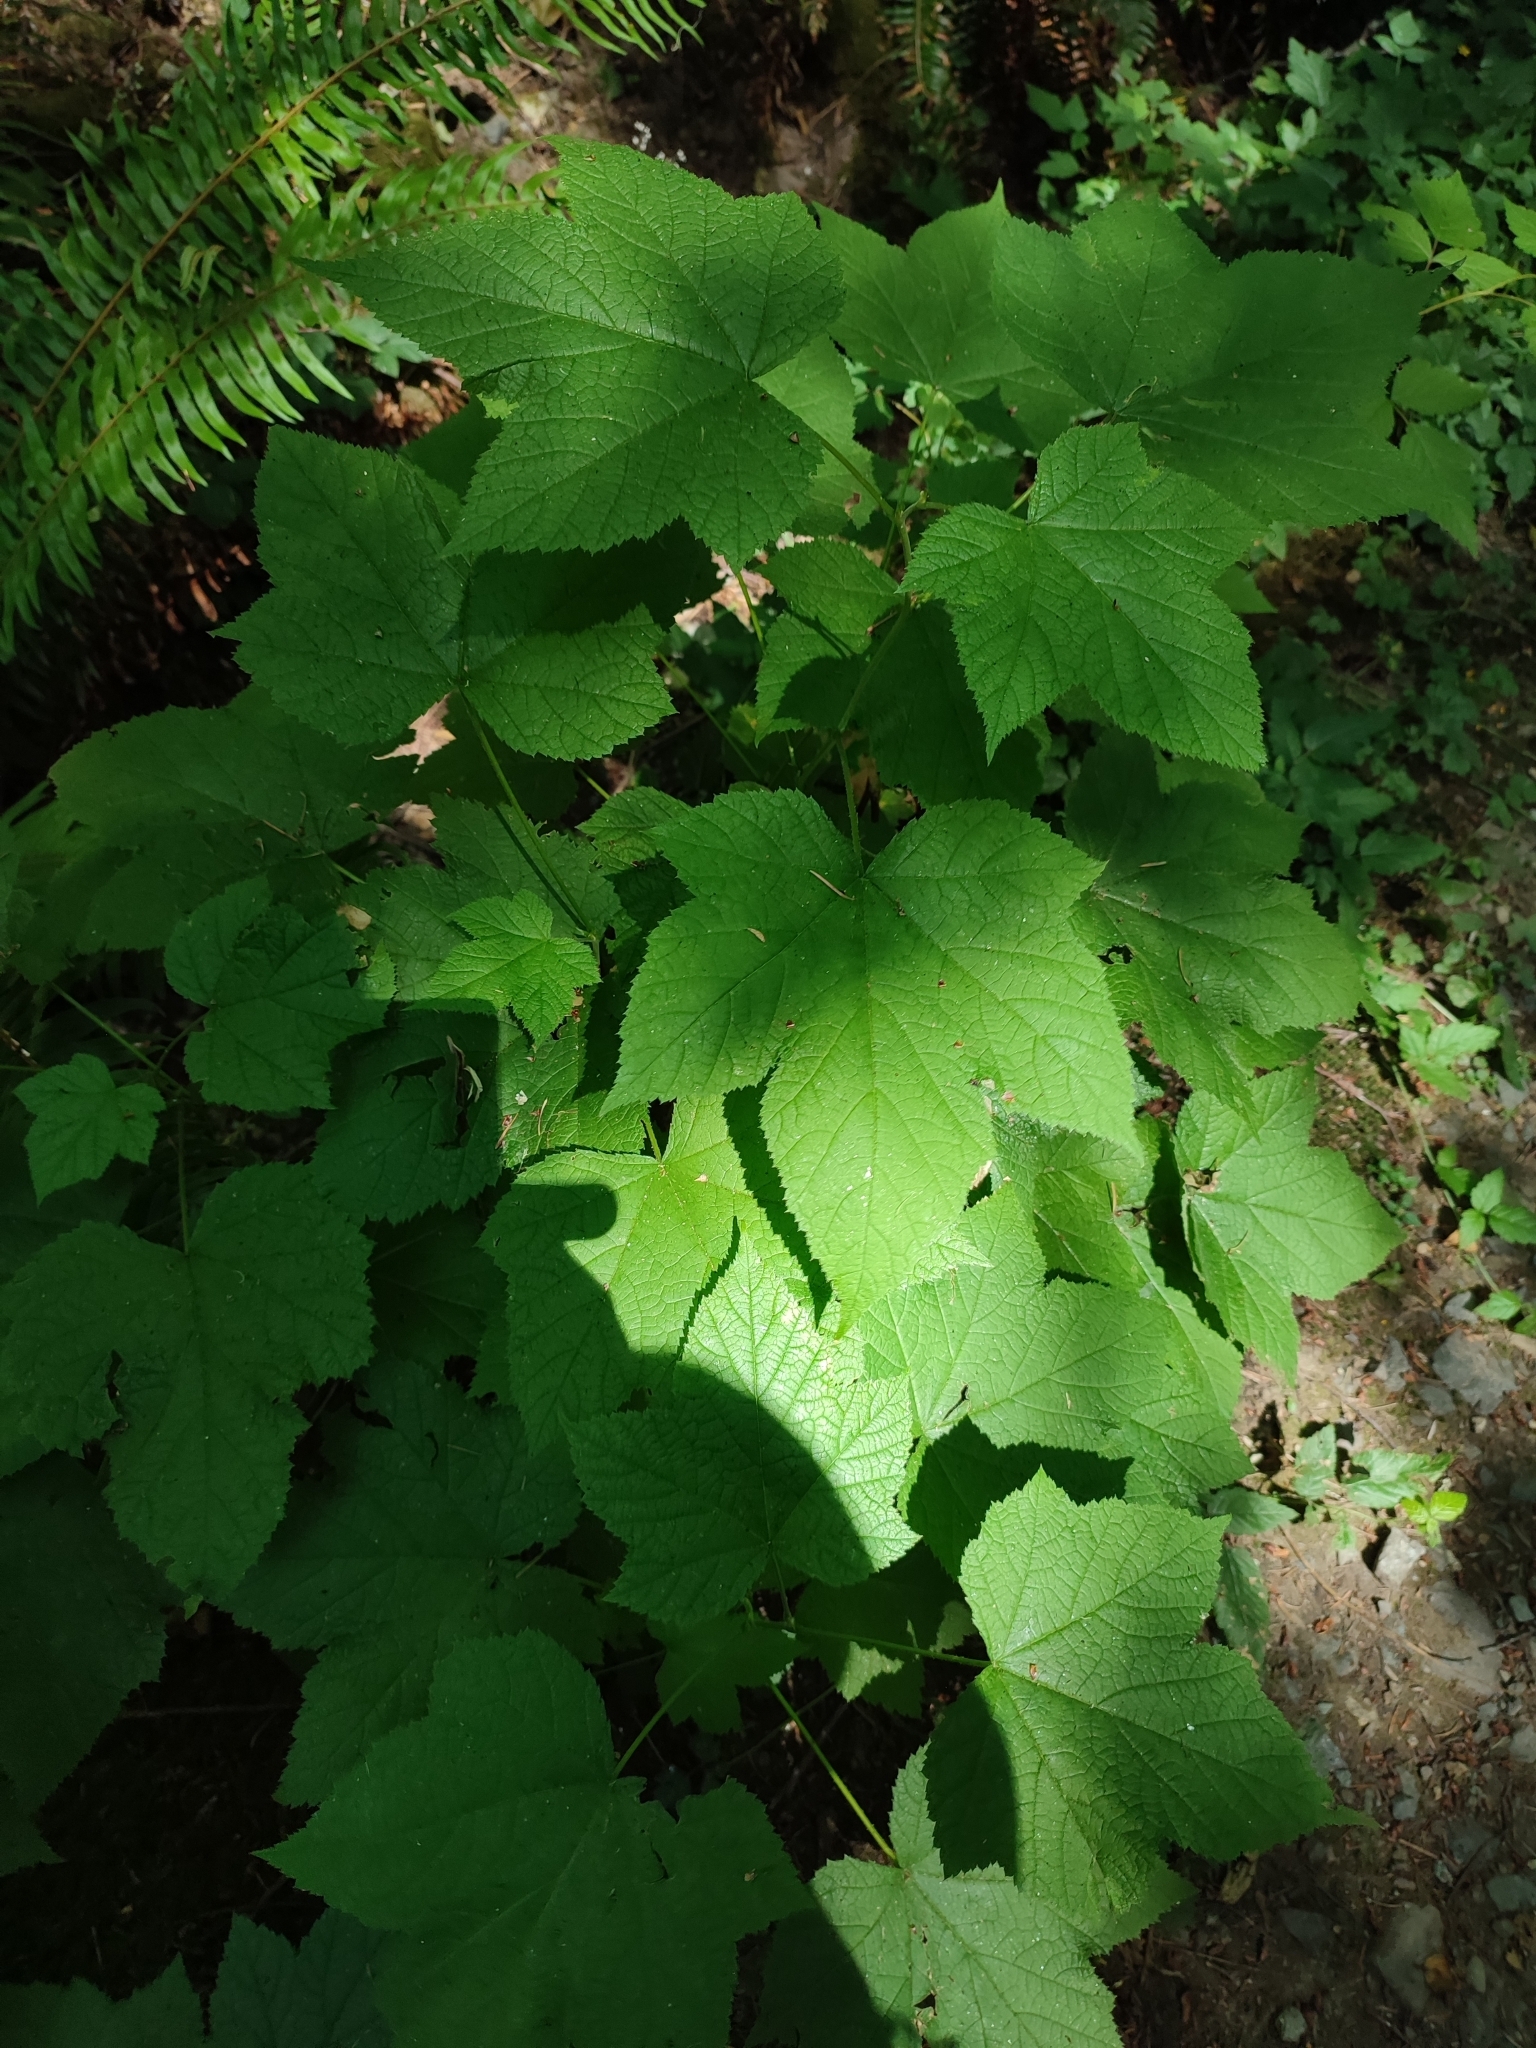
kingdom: Plantae
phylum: Tracheophyta
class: Magnoliopsida
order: Rosales
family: Rosaceae
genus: Rubus
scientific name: Rubus parviflorus
